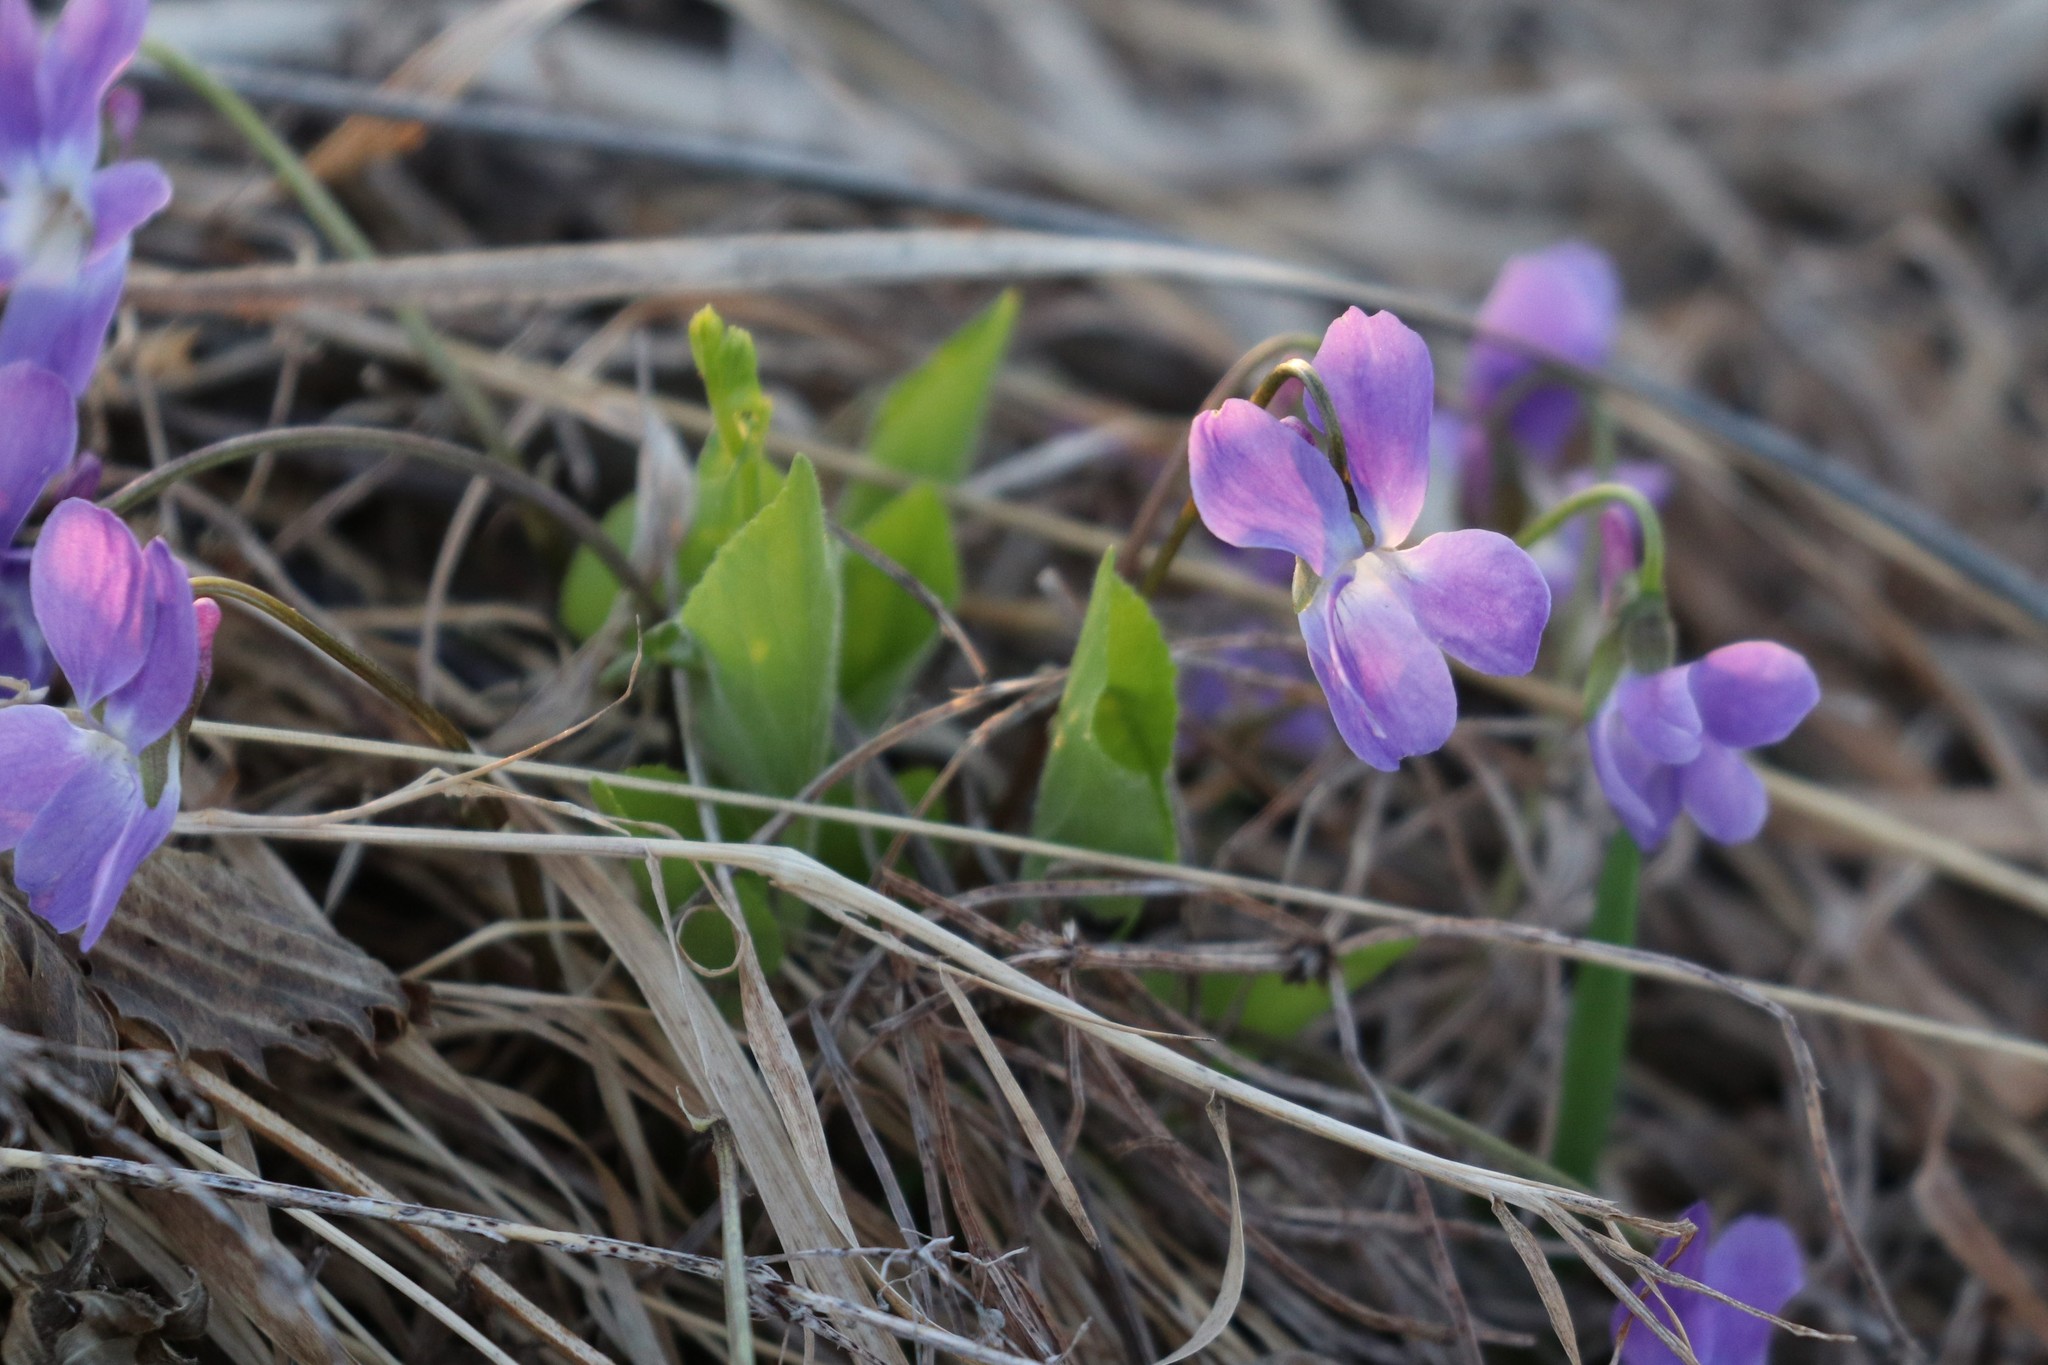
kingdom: Plantae
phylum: Tracheophyta
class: Magnoliopsida
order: Malpighiales
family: Violaceae
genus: Viola
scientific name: Viola hirta
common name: Hairy violet
